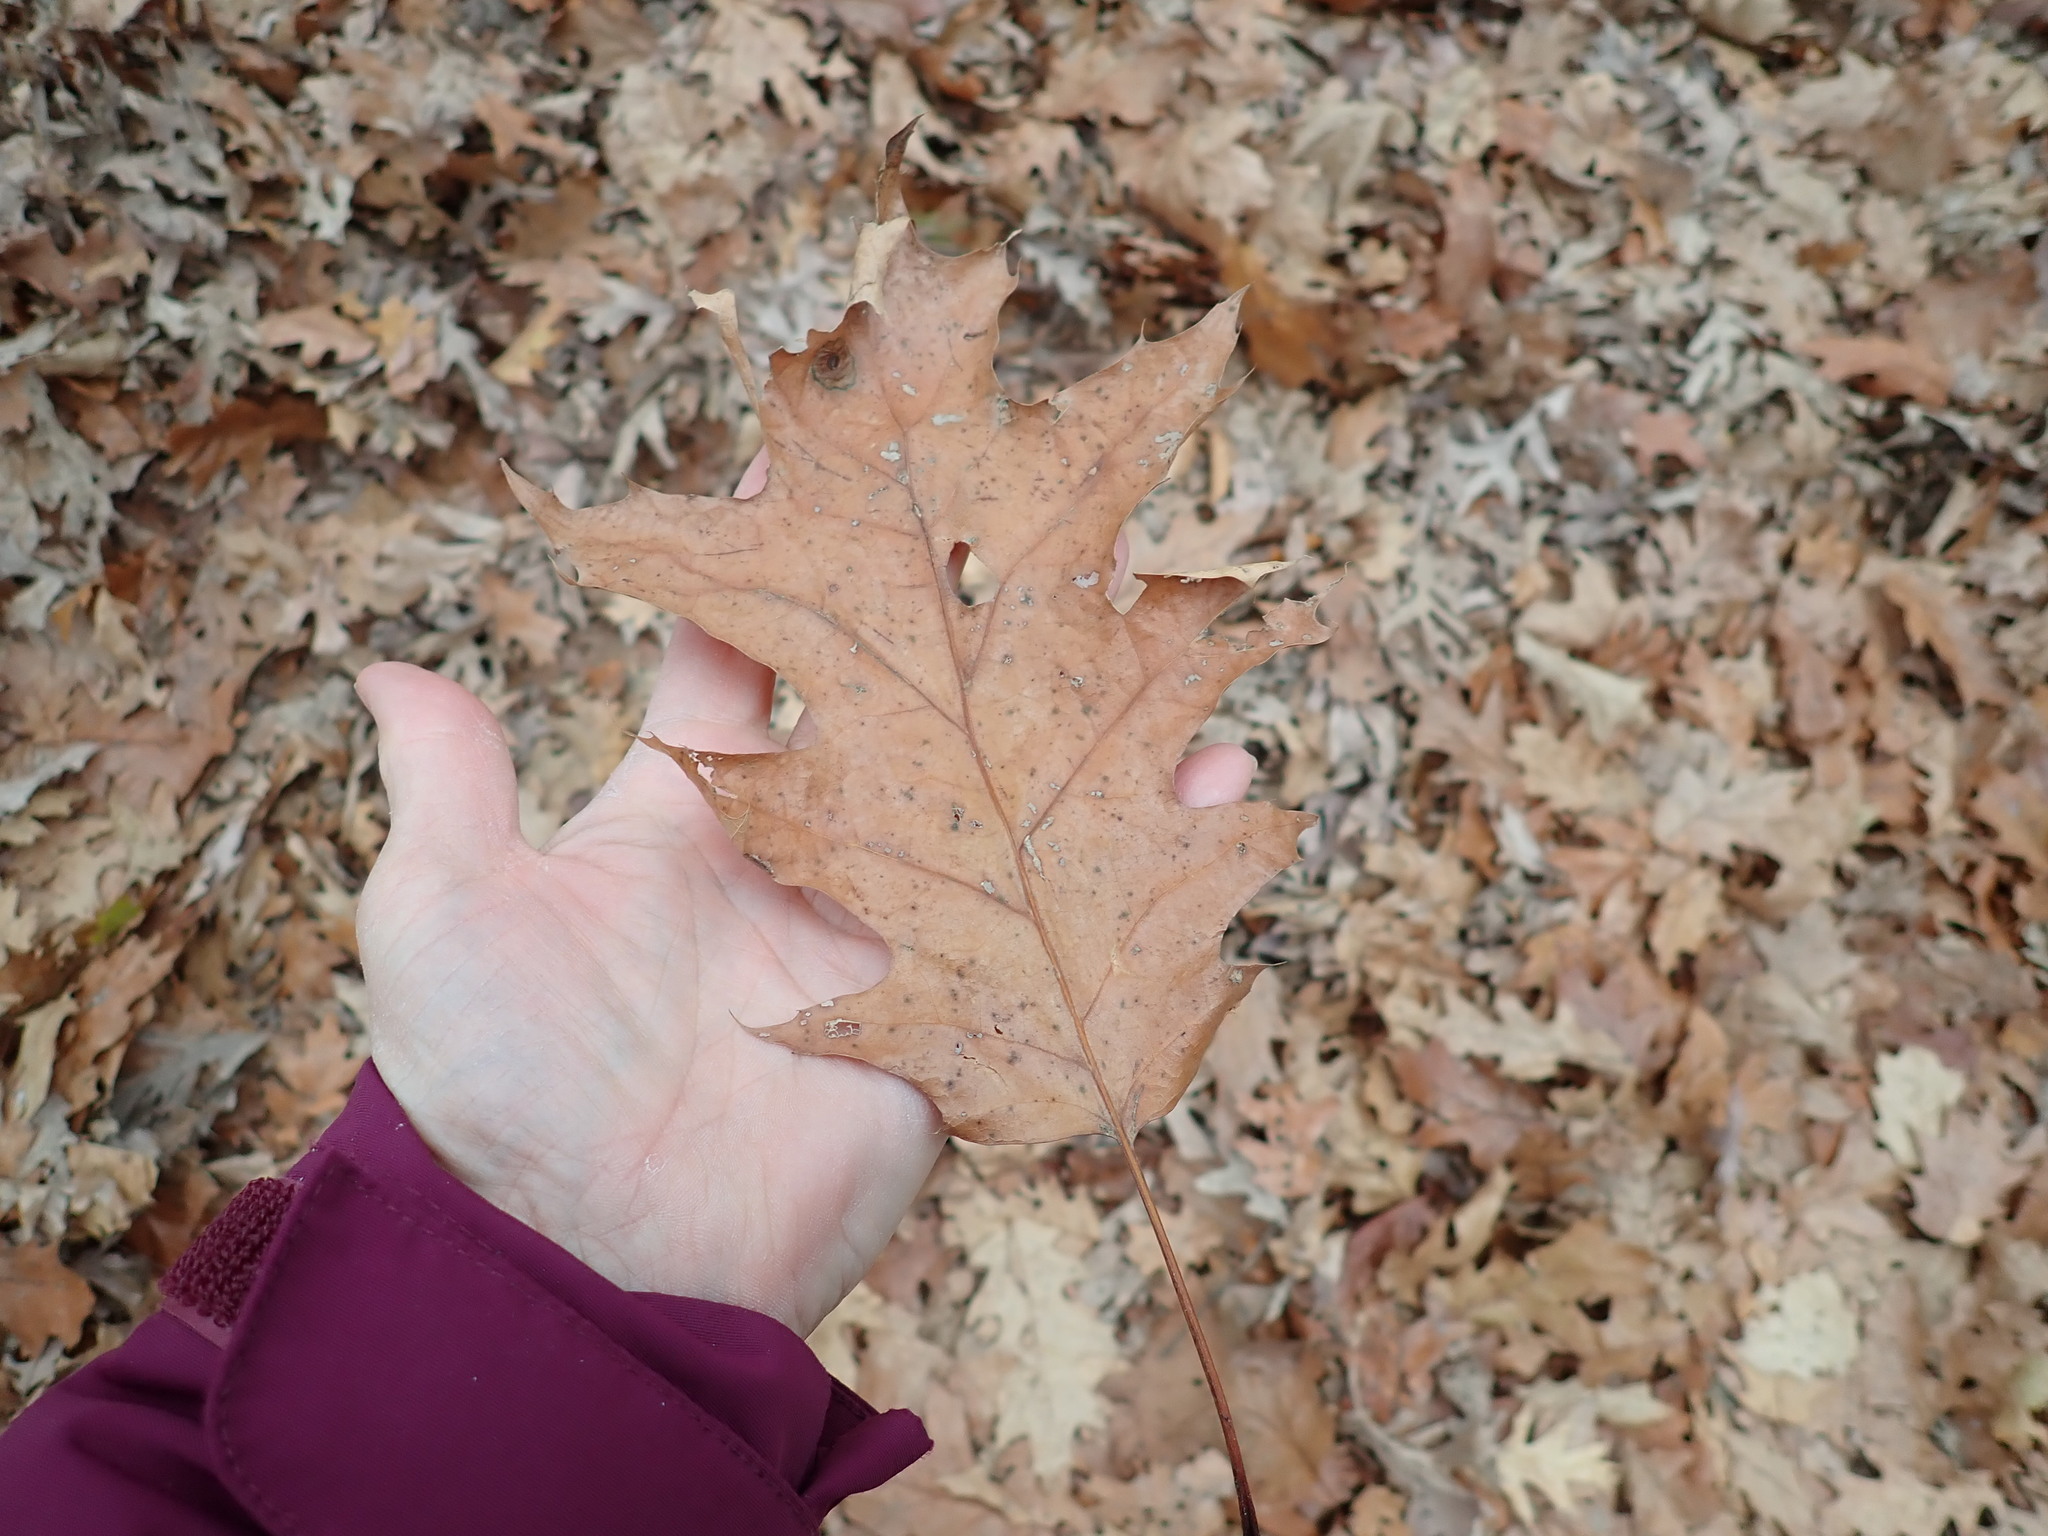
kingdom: Plantae
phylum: Tracheophyta
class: Magnoliopsida
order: Fagales
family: Fagaceae
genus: Quercus
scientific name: Quercus rubra
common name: Red oak
